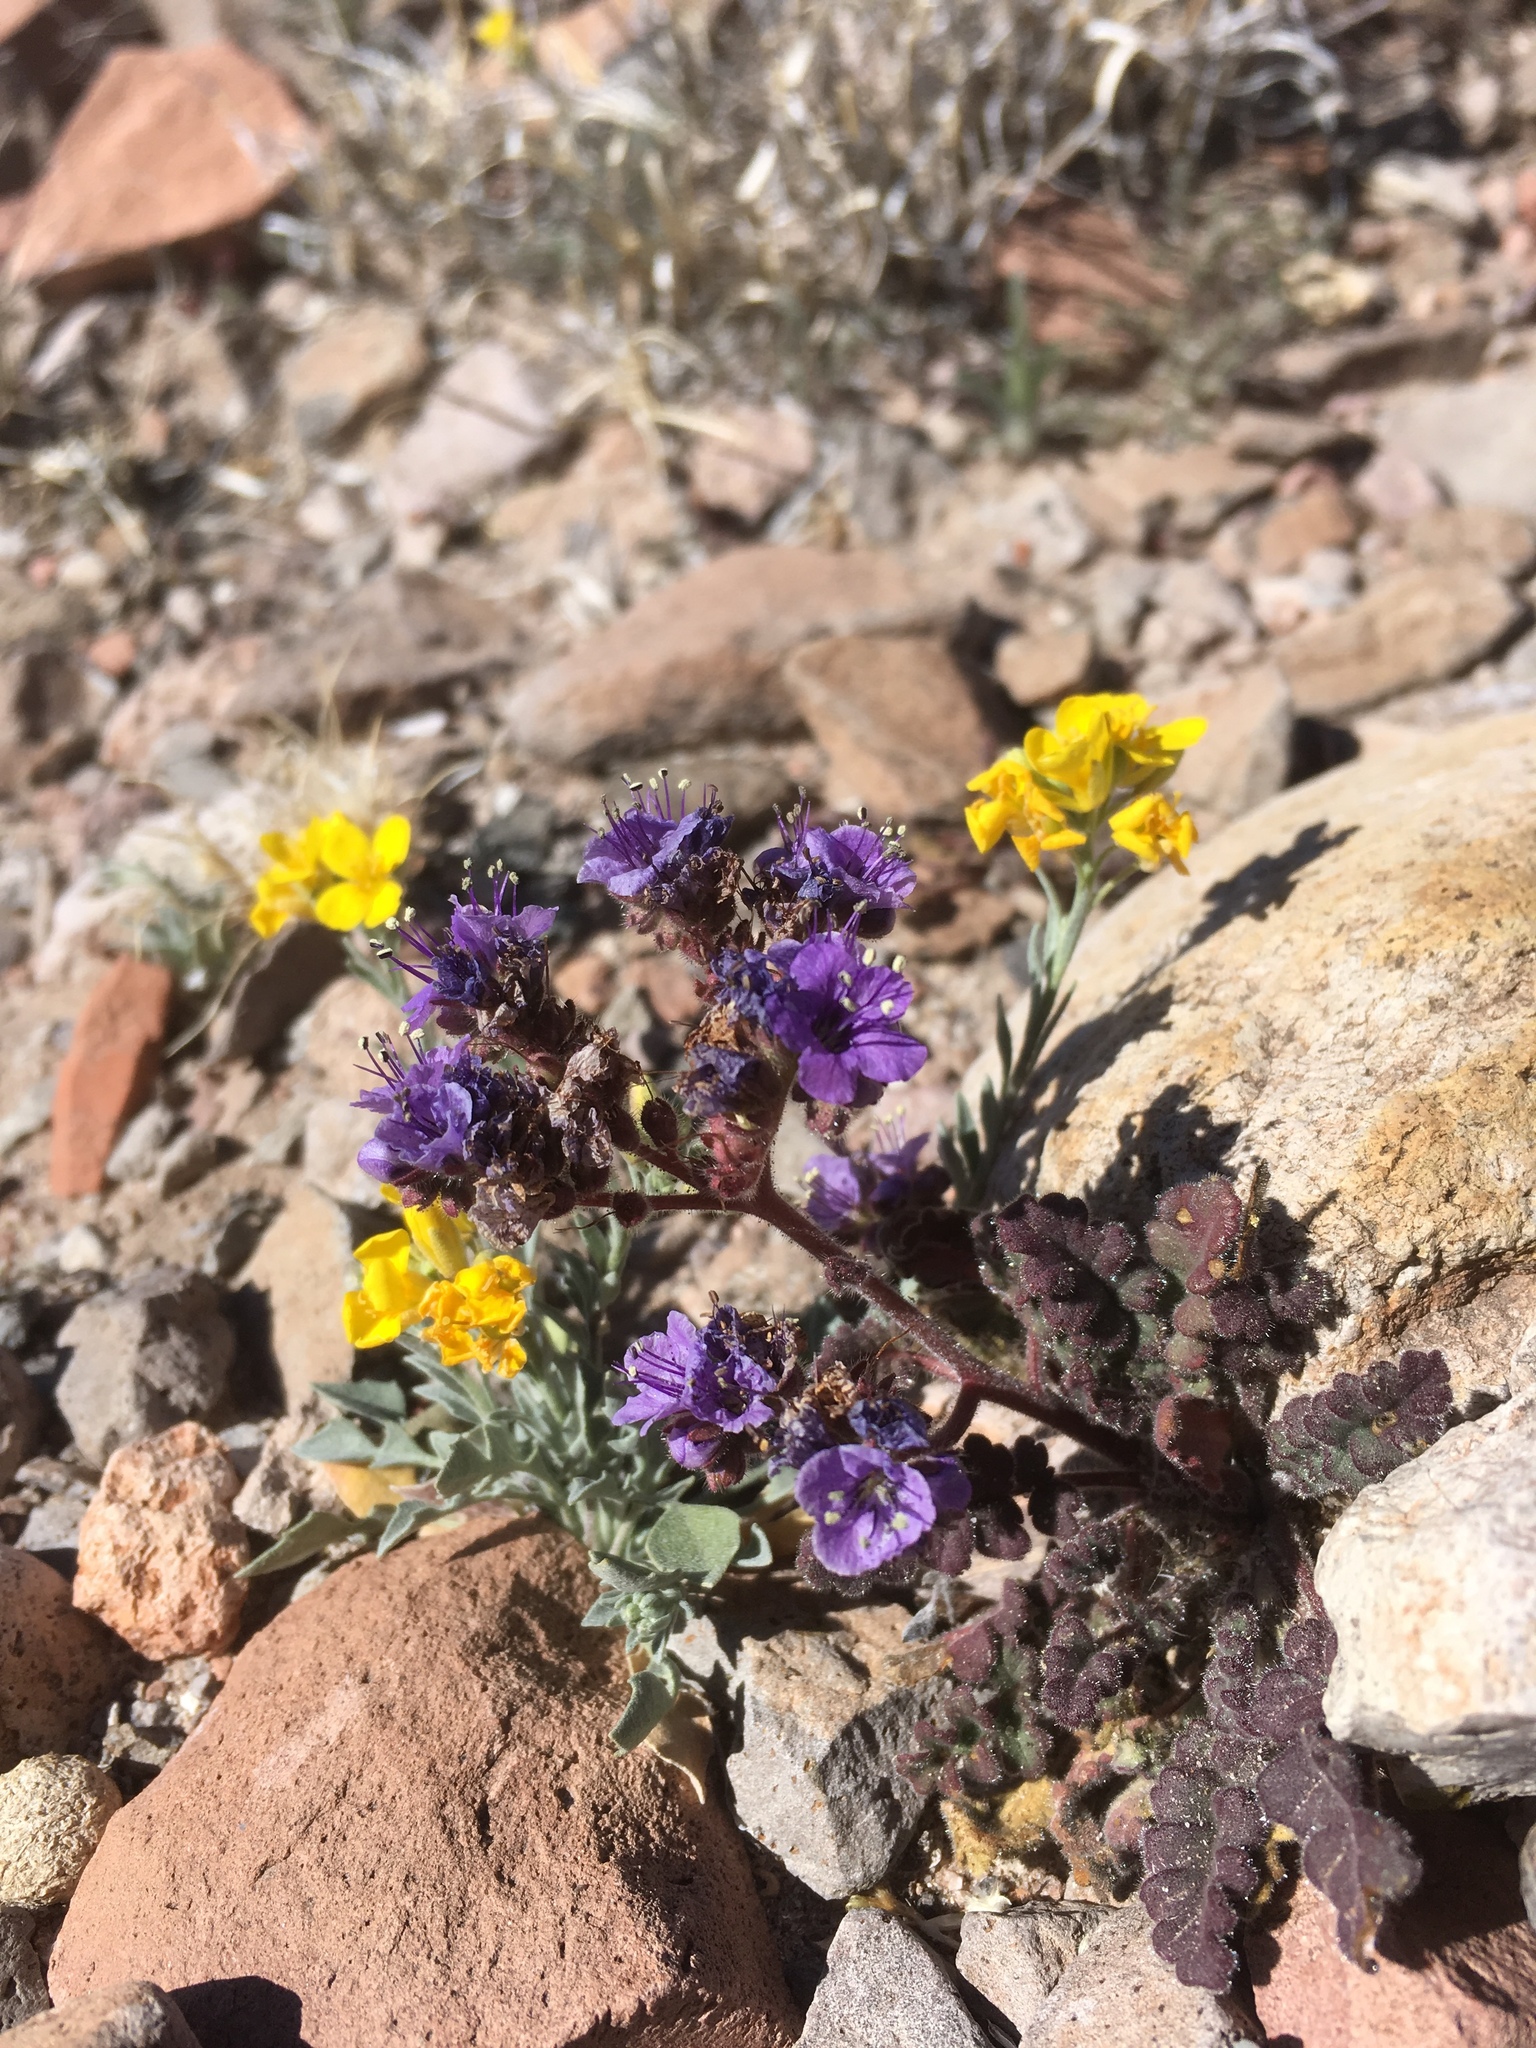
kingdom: Plantae
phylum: Tracheophyta
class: Magnoliopsida
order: Boraginales
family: Hydrophyllaceae
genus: Phacelia
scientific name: Phacelia bombycina
